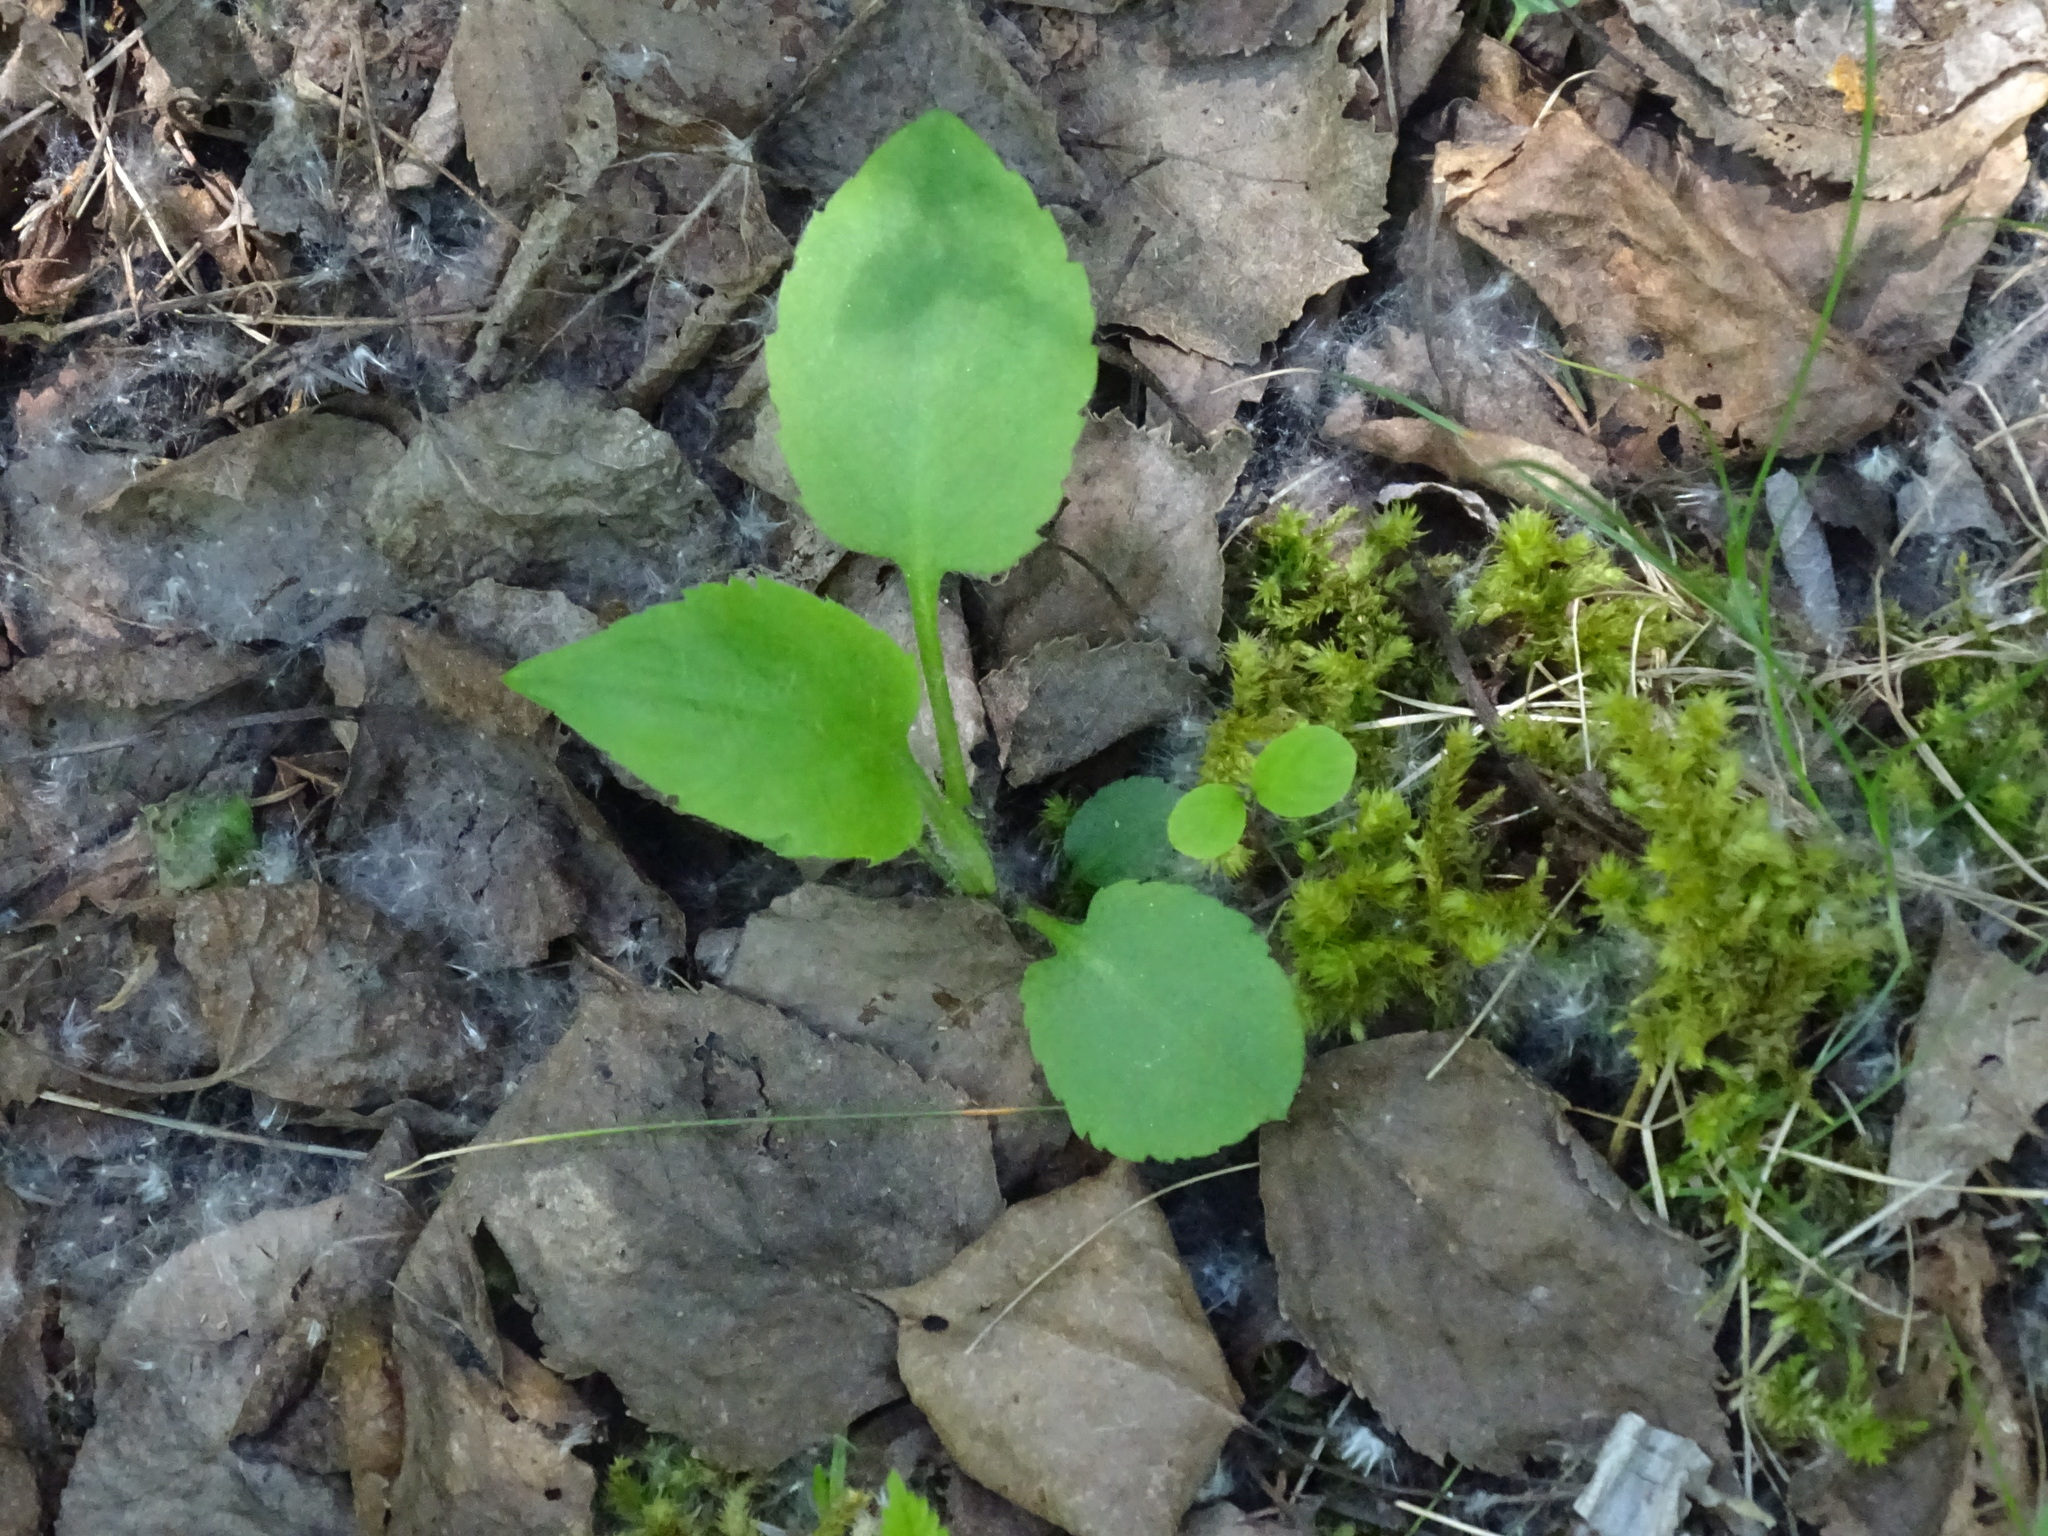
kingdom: Plantae
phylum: Tracheophyta
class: Magnoliopsida
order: Asterales
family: Asteraceae
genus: Symphyotrichum
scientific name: Symphyotrichum ciliolatum
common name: Fringed blue aster
